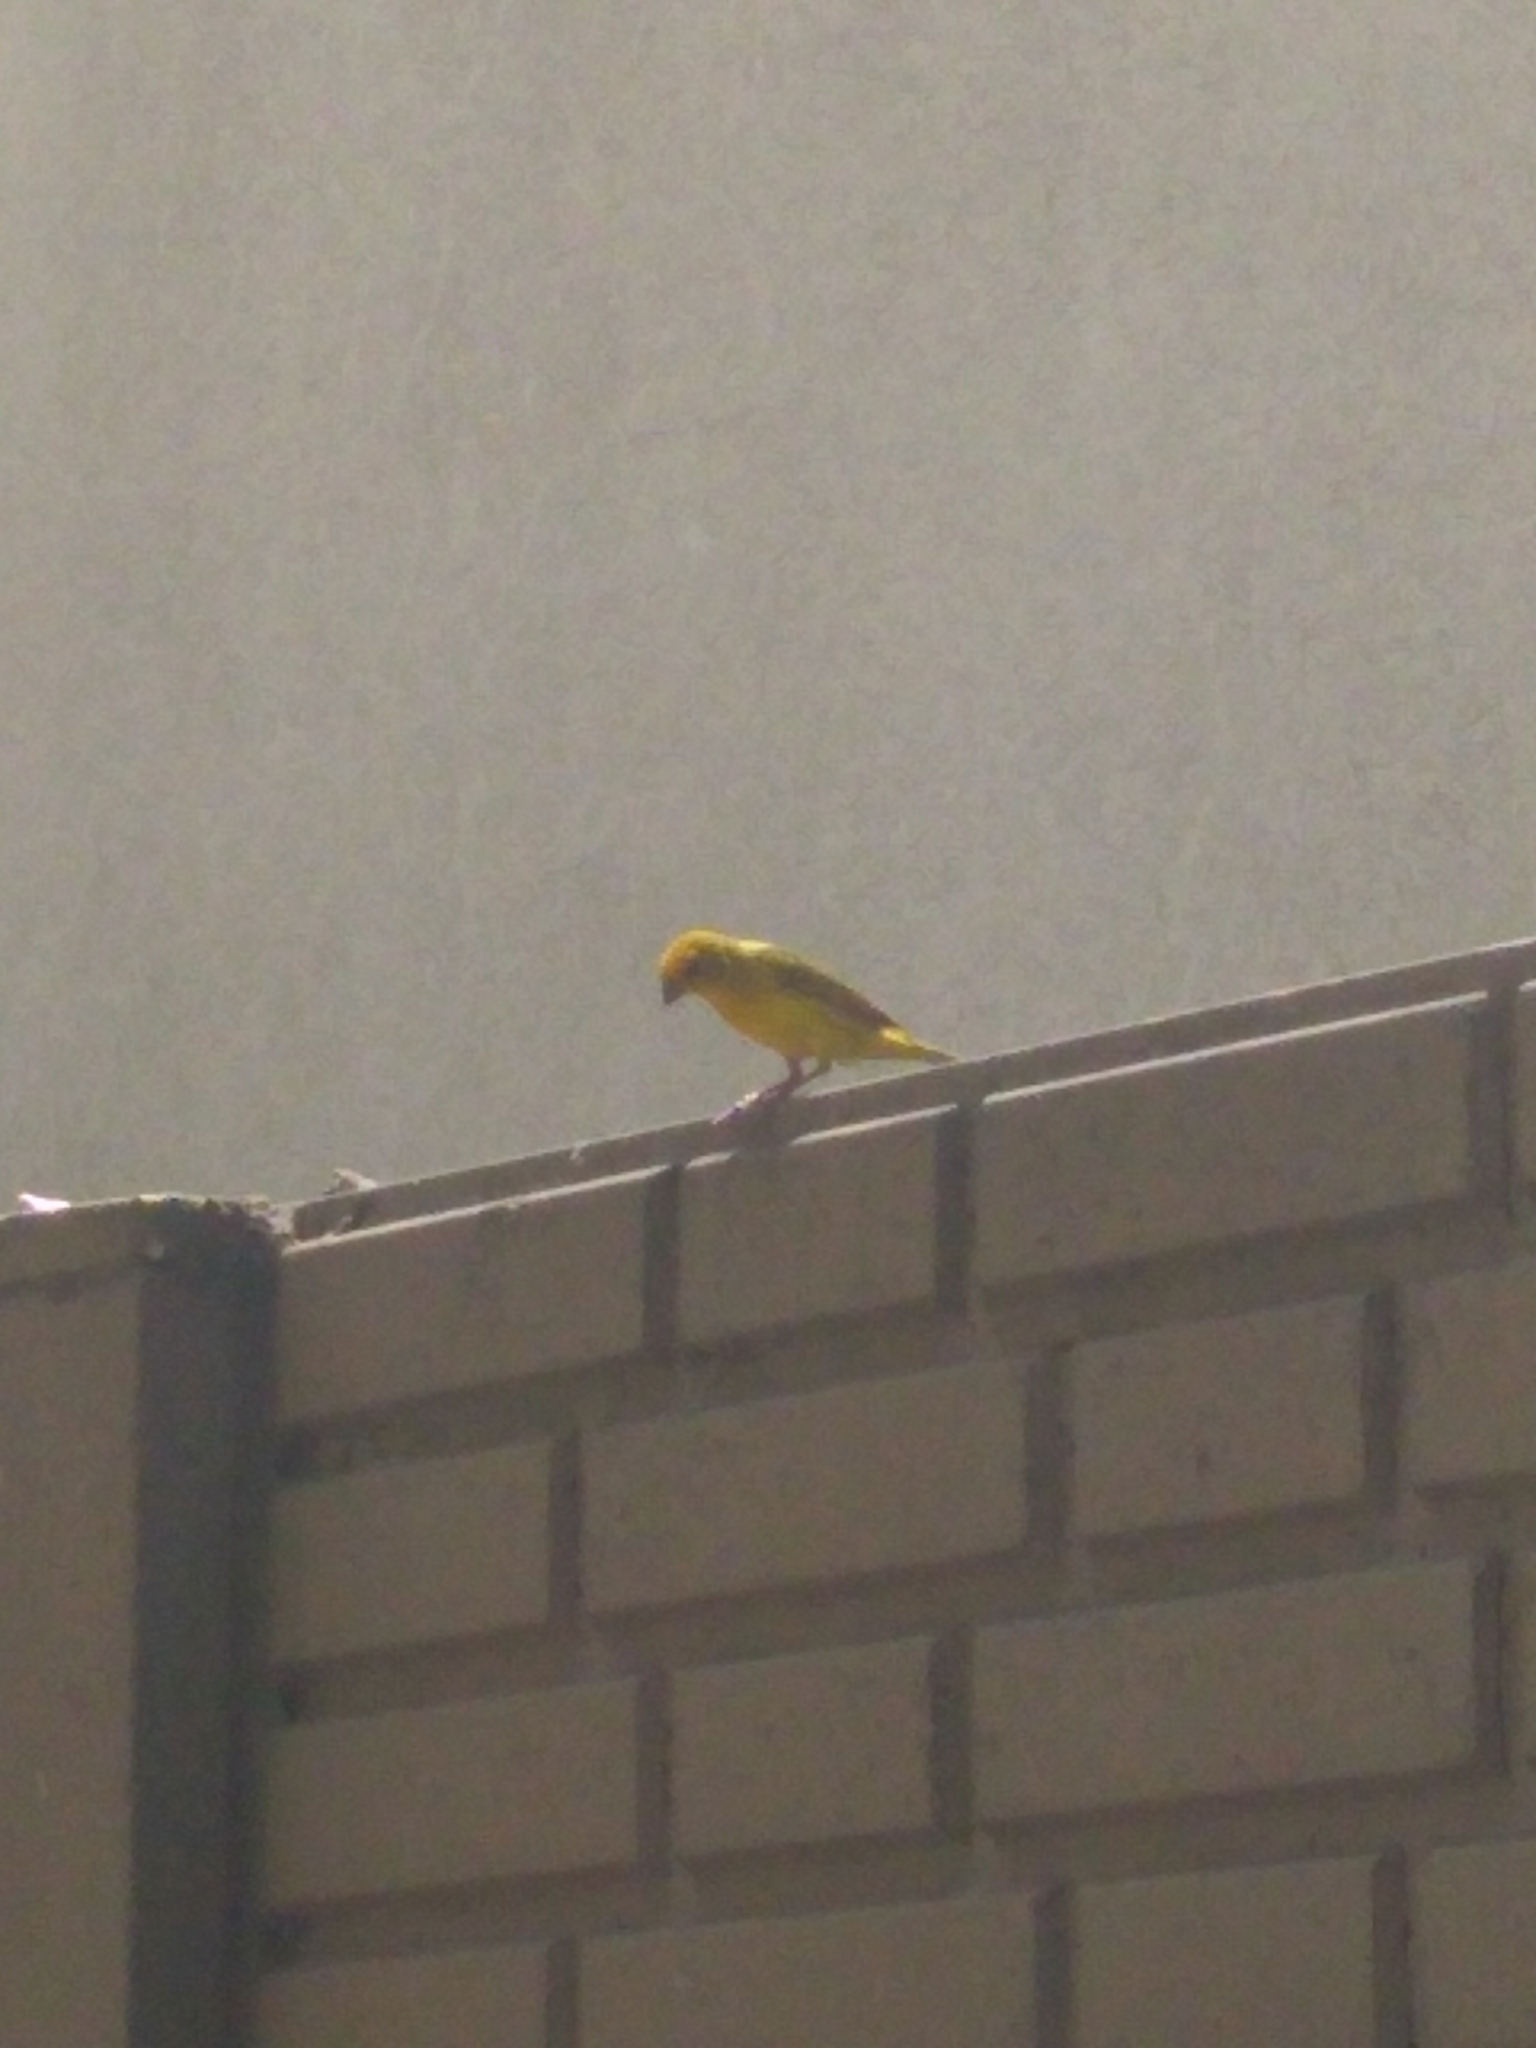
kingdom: Animalia
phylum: Chordata
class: Aves
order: Passeriformes
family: Thraupidae
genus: Sicalis
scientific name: Sicalis flaveola
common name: Saffron finch
